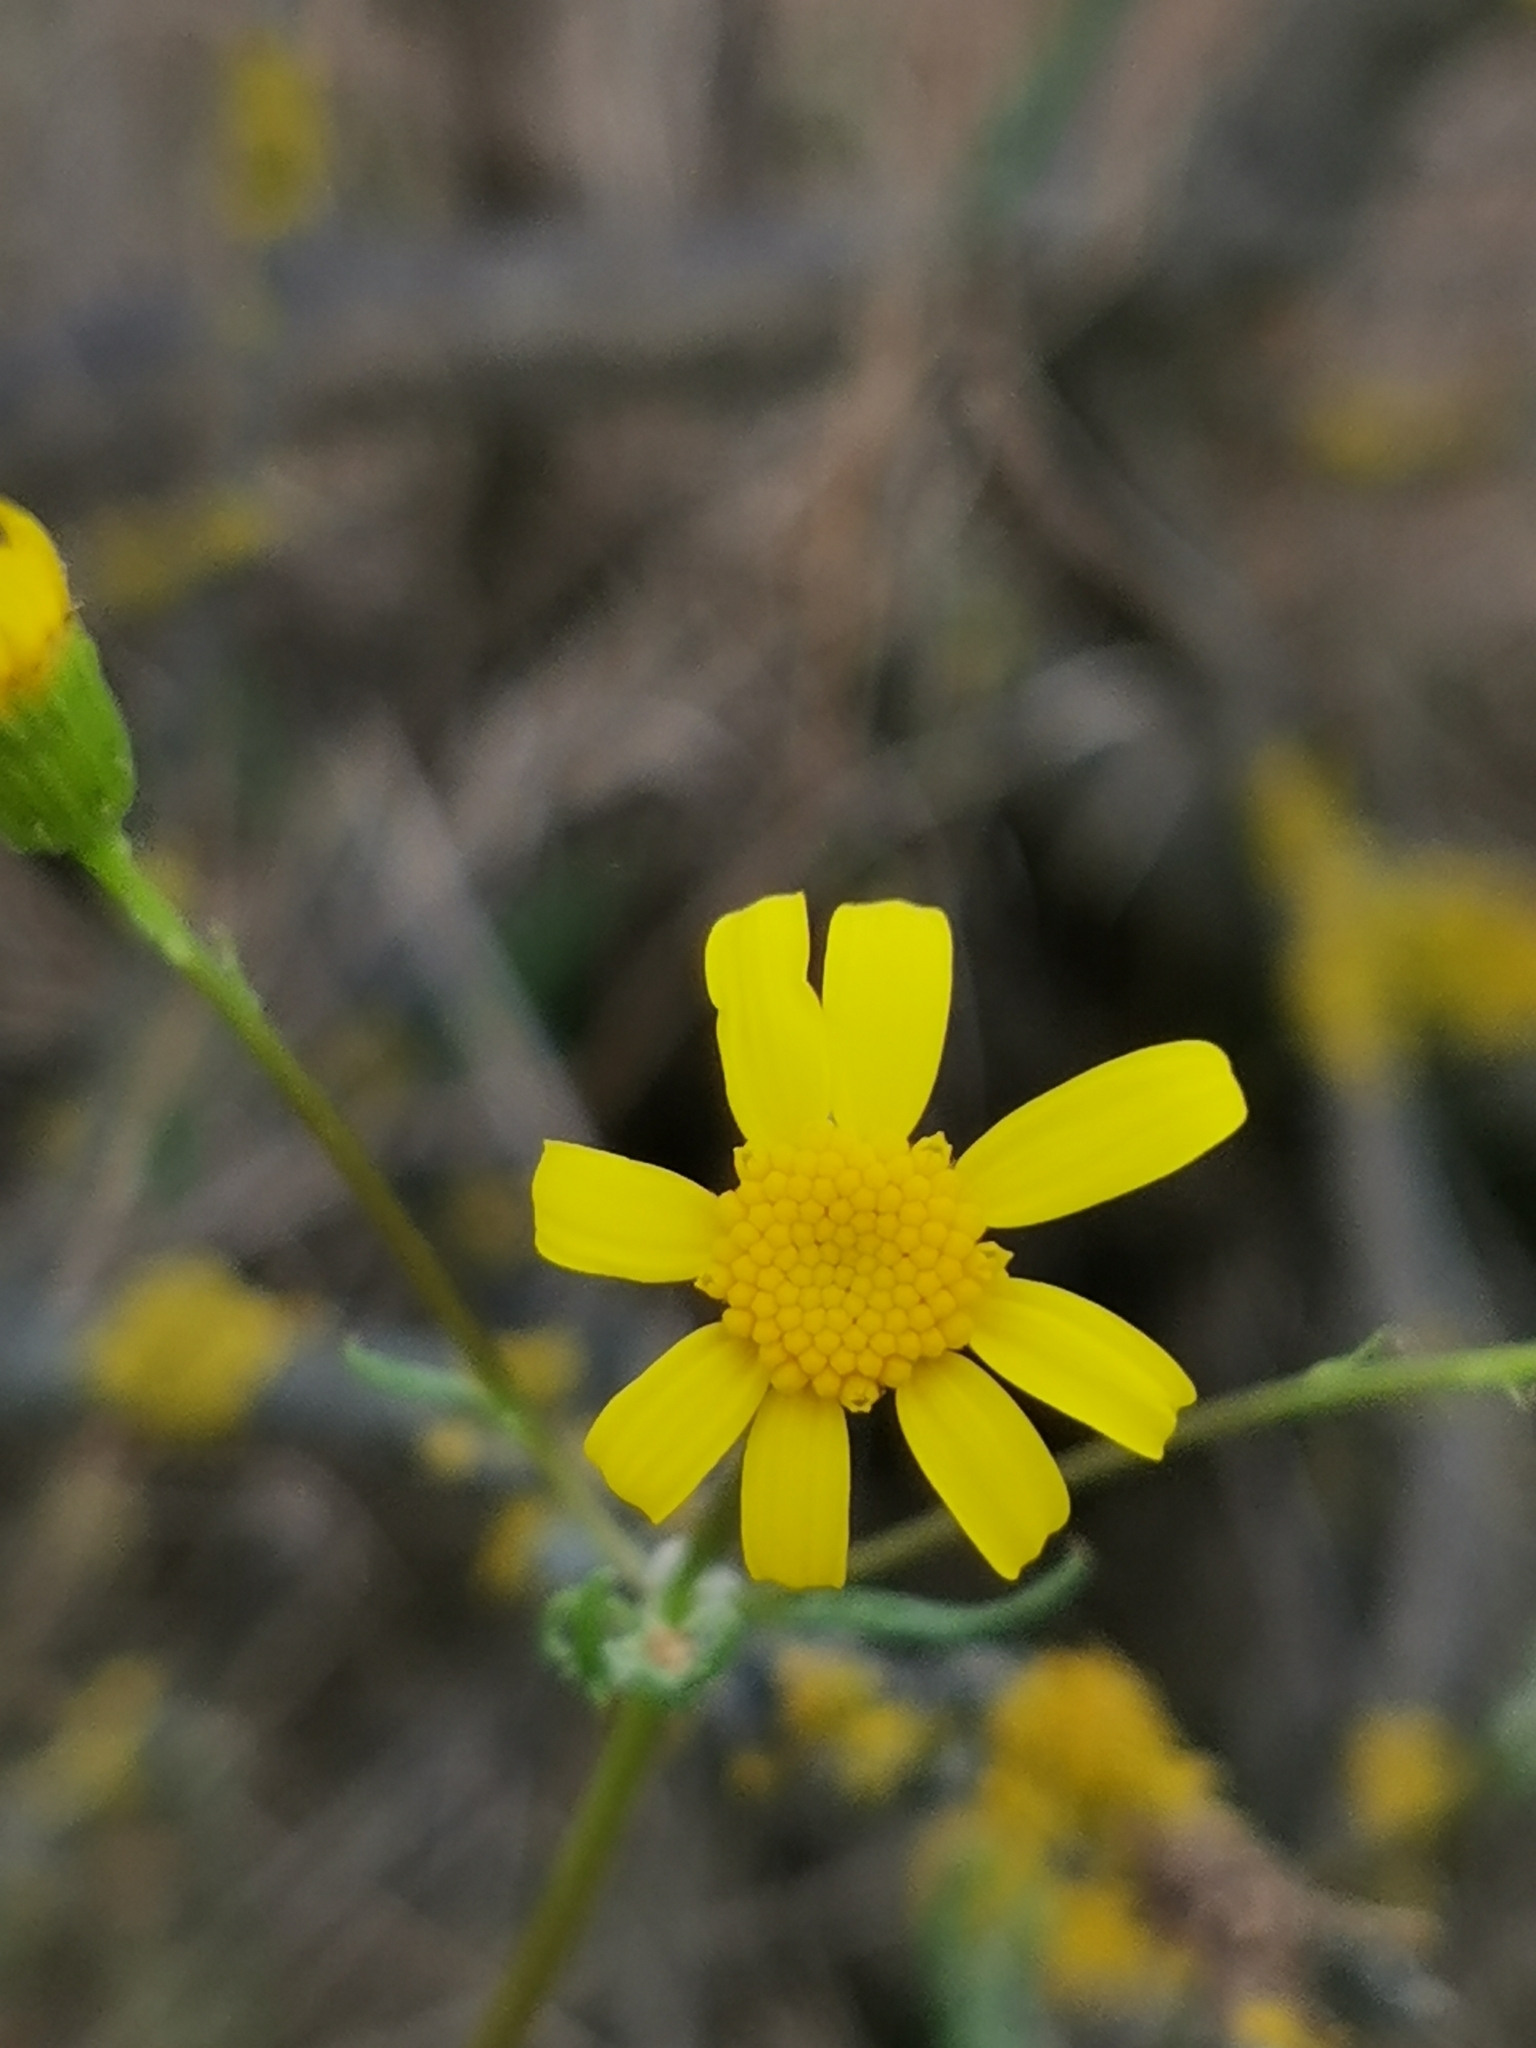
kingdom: Plantae
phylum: Tracheophyta
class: Magnoliopsida
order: Asterales
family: Asteraceae
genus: Senecio
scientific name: Senecio vernalis
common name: Eastern groundsel
